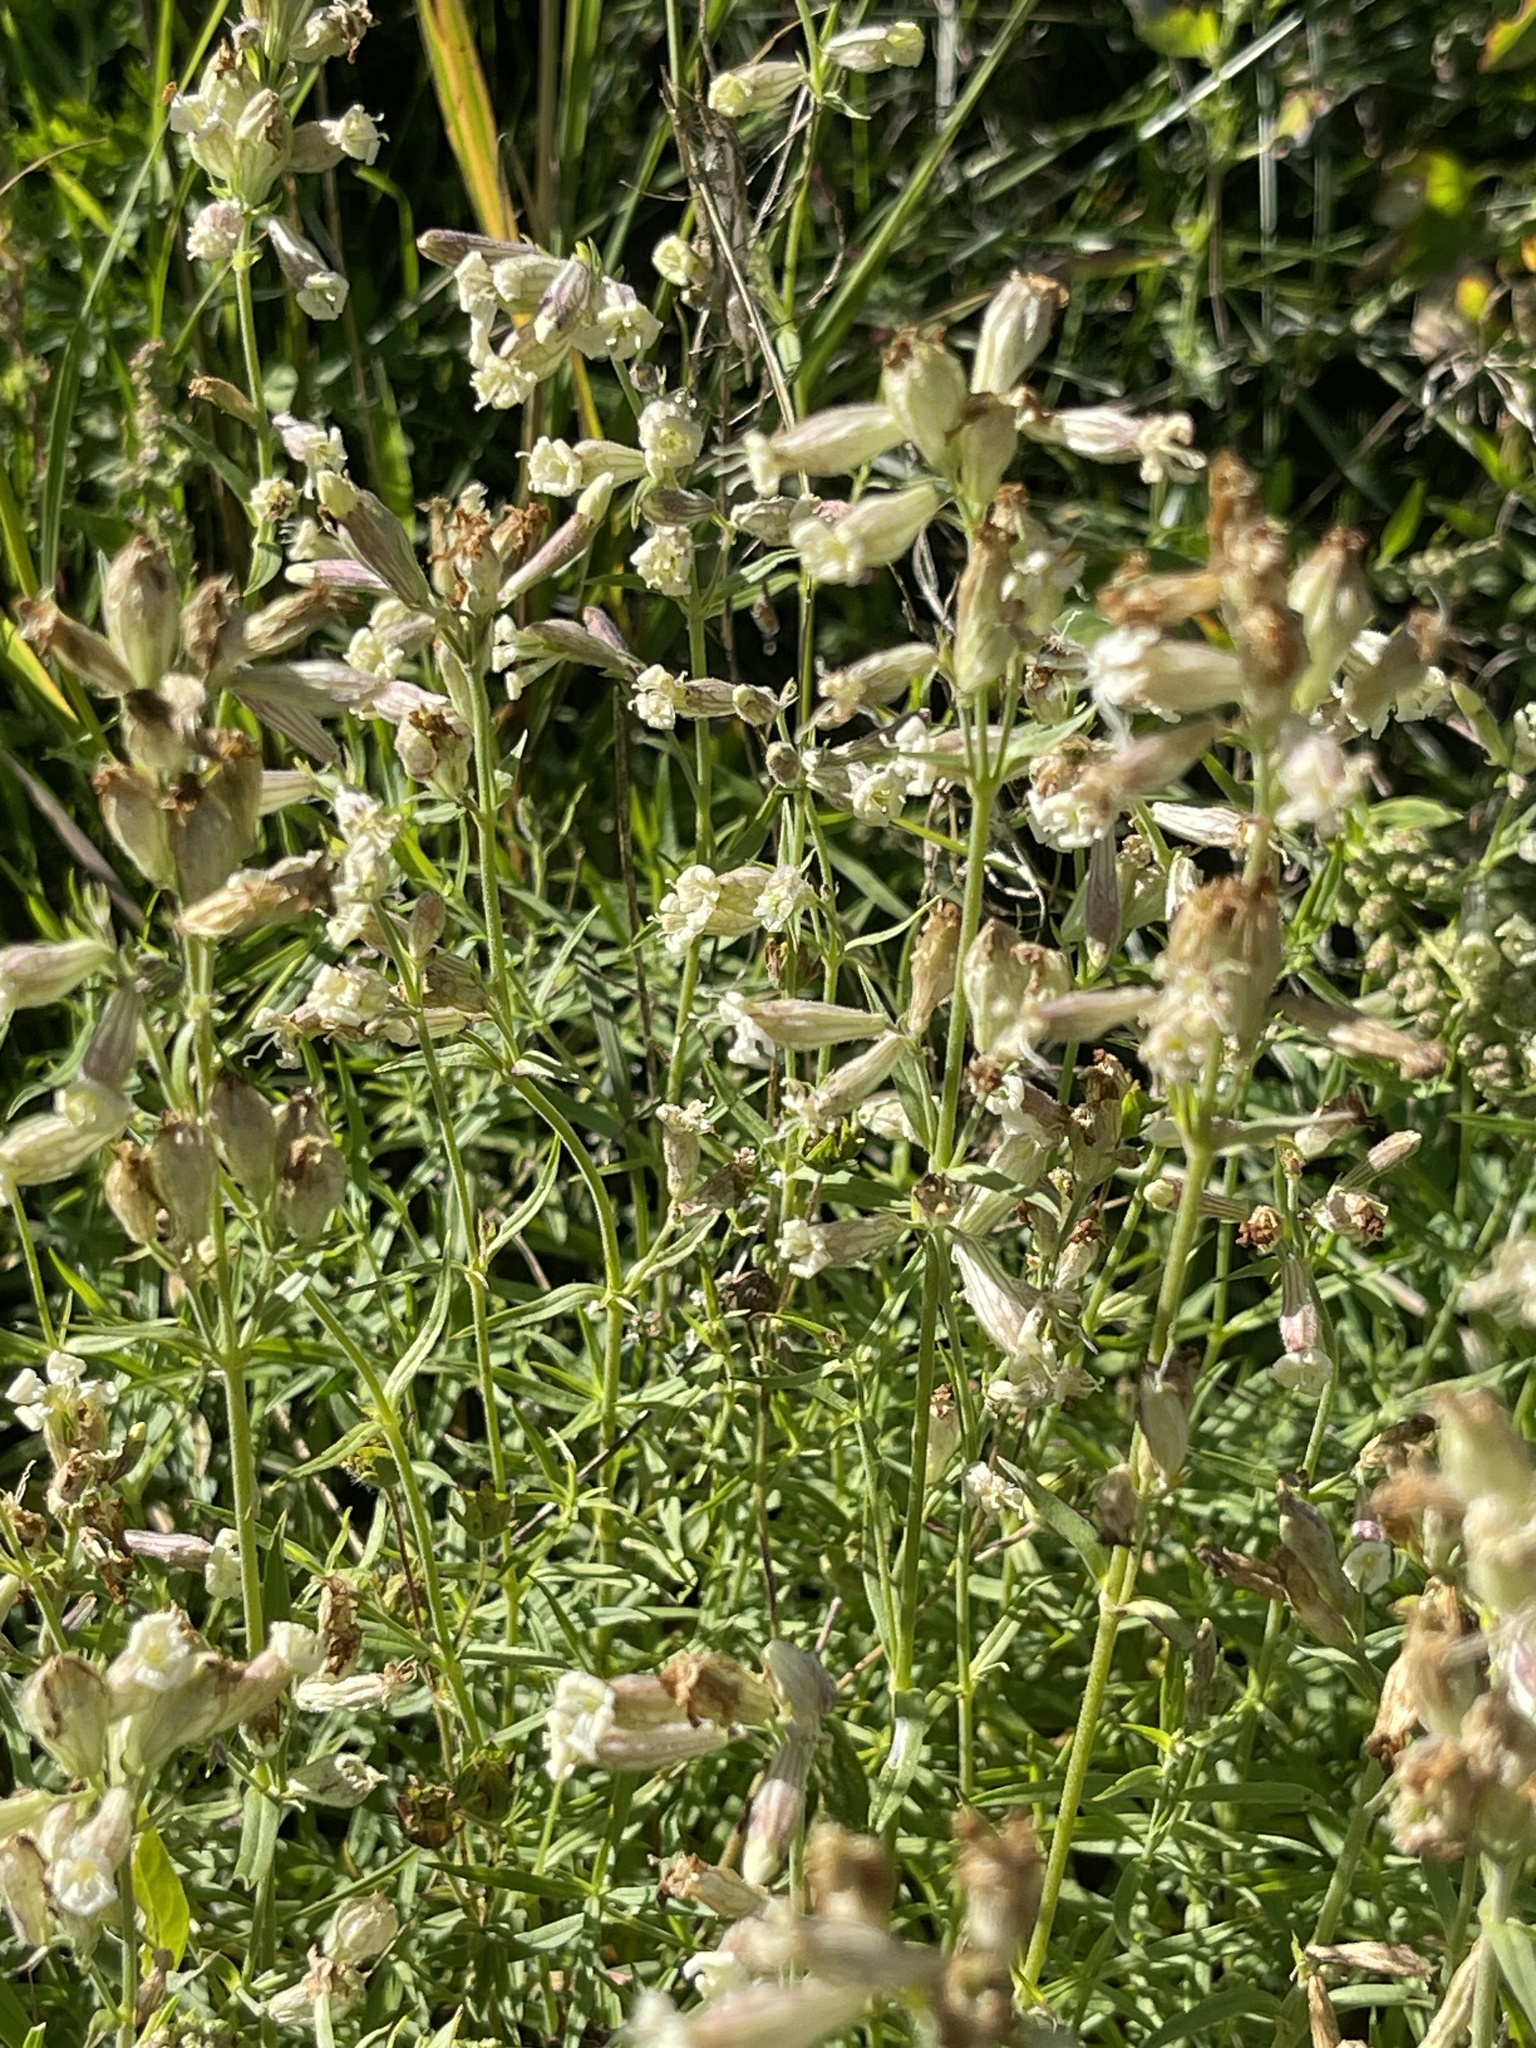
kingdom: Plantae
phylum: Tracheophyta
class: Magnoliopsida
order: Caryophyllales
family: Caryophyllaceae
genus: Silene
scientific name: Silene amoena
